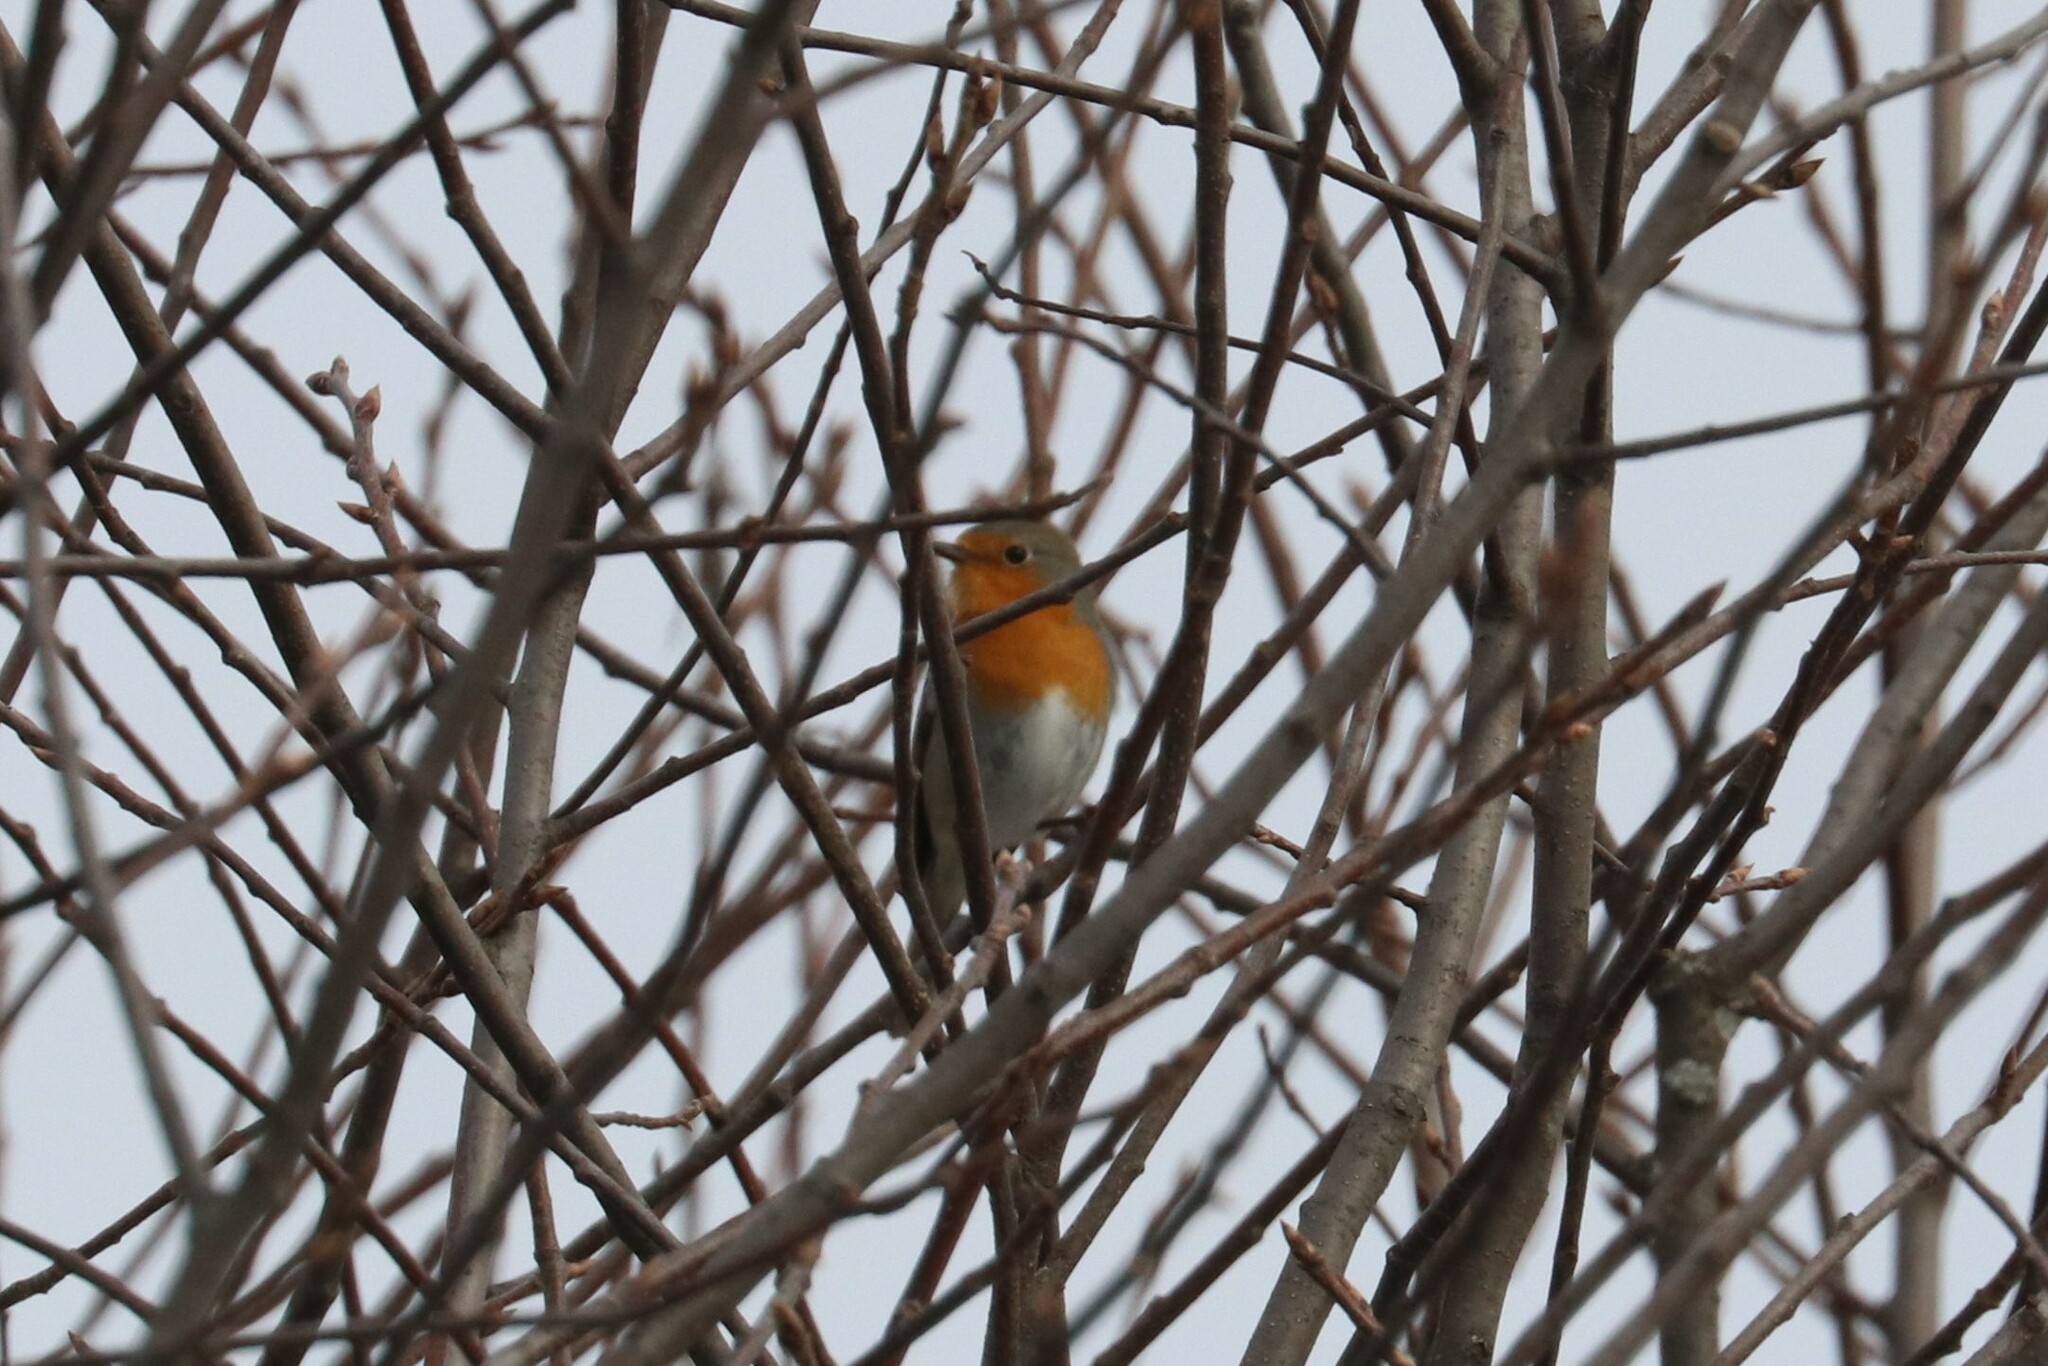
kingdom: Animalia
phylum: Chordata
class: Aves
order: Passeriformes
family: Muscicapidae
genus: Erithacus
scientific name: Erithacus rubecula
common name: European robin
